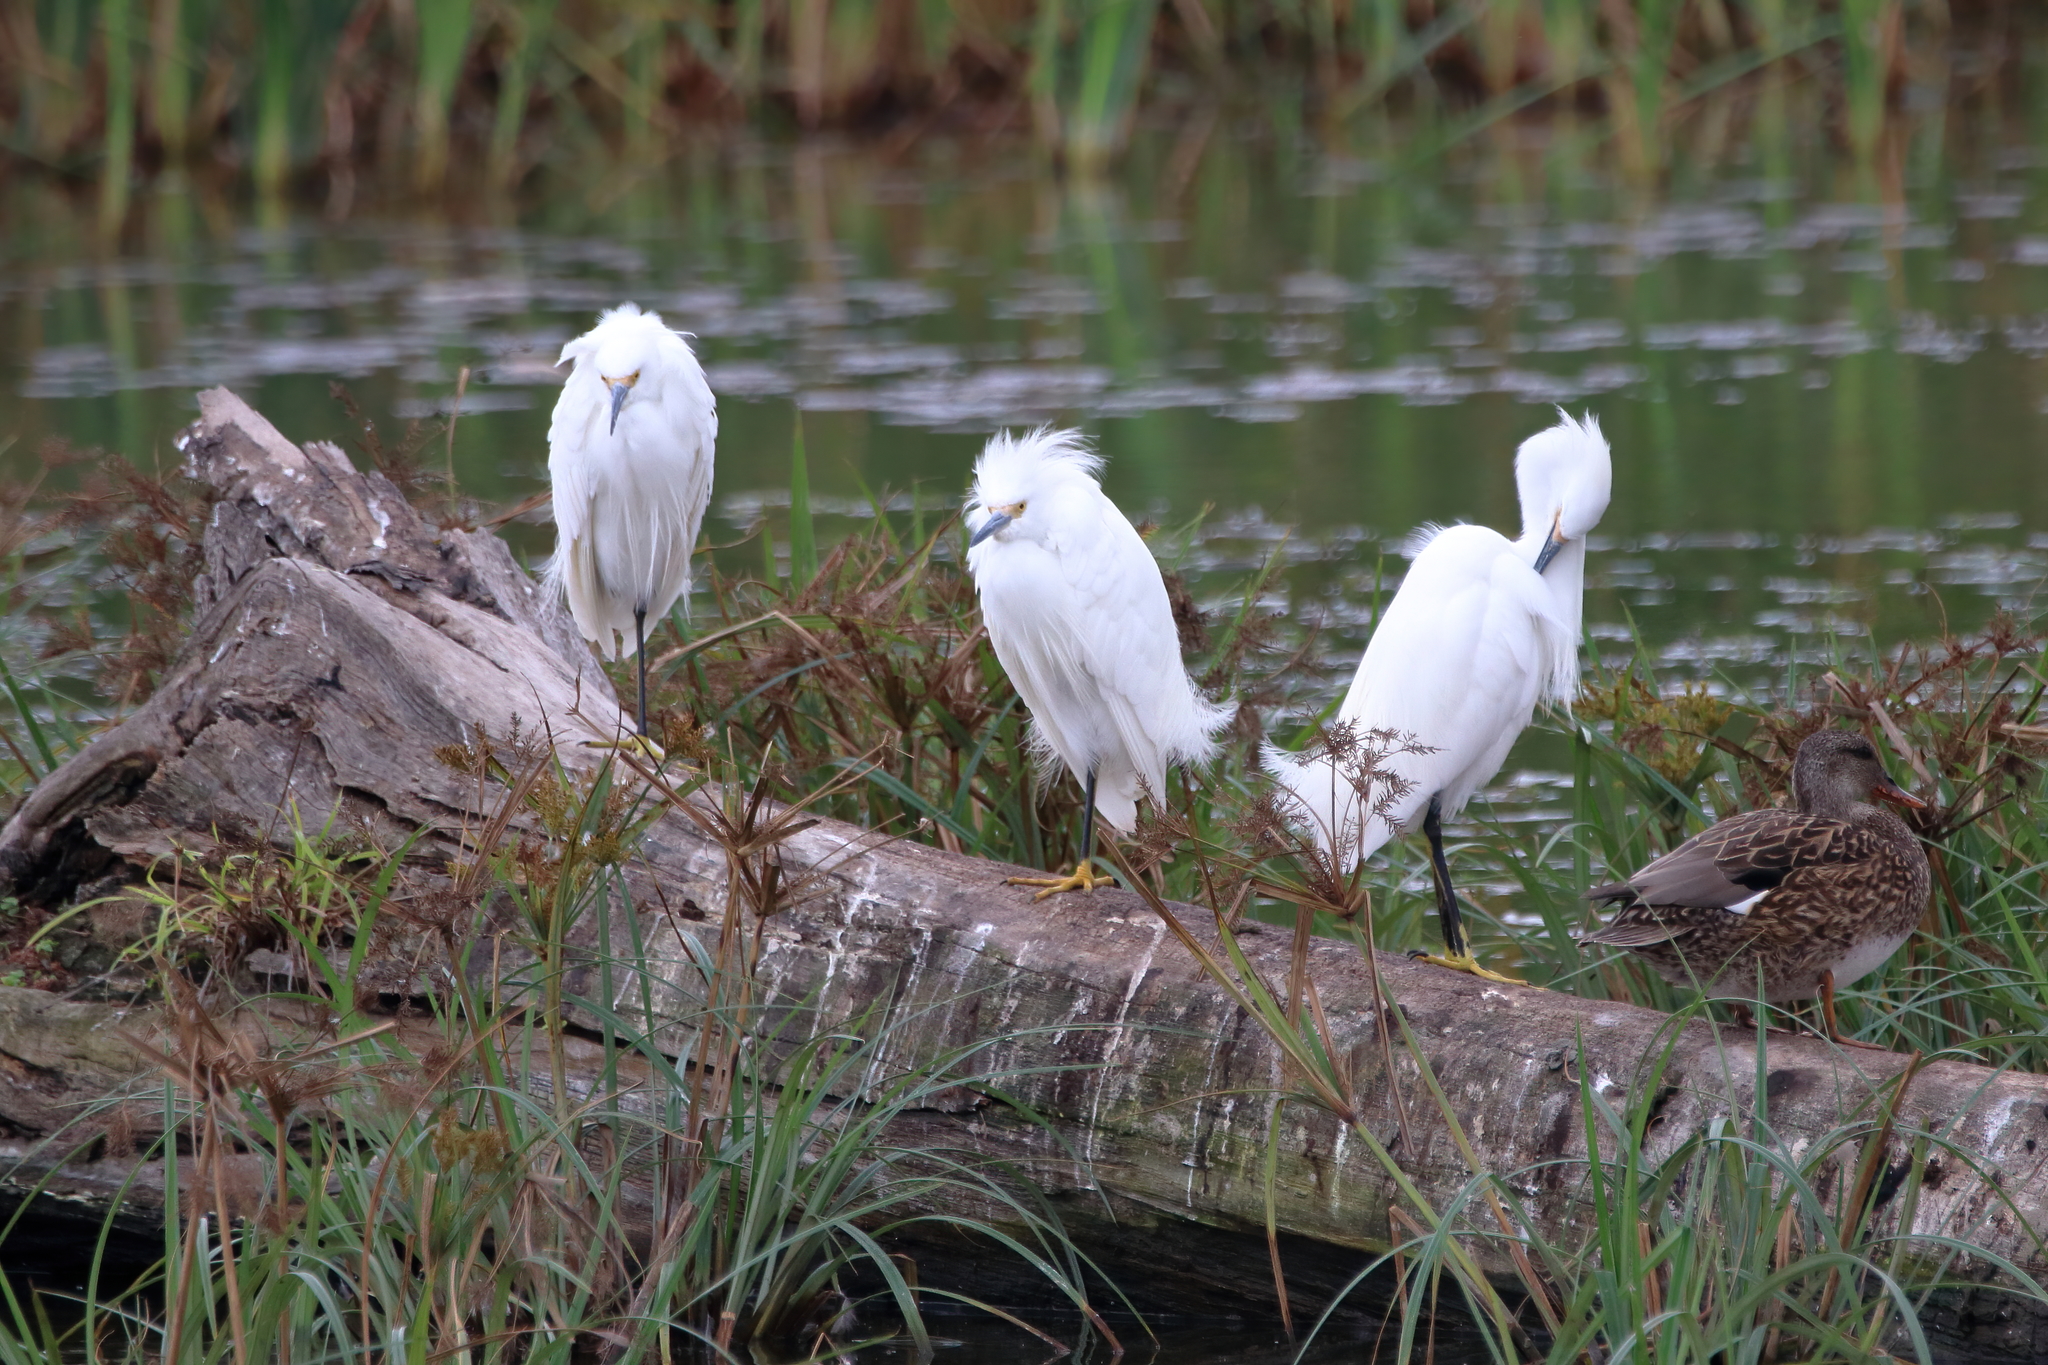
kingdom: Animalia
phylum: Chordata
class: Aves
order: Pelecaniformes
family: Ardeidae
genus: Egretta
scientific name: Egretta thula
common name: Snowy egret
